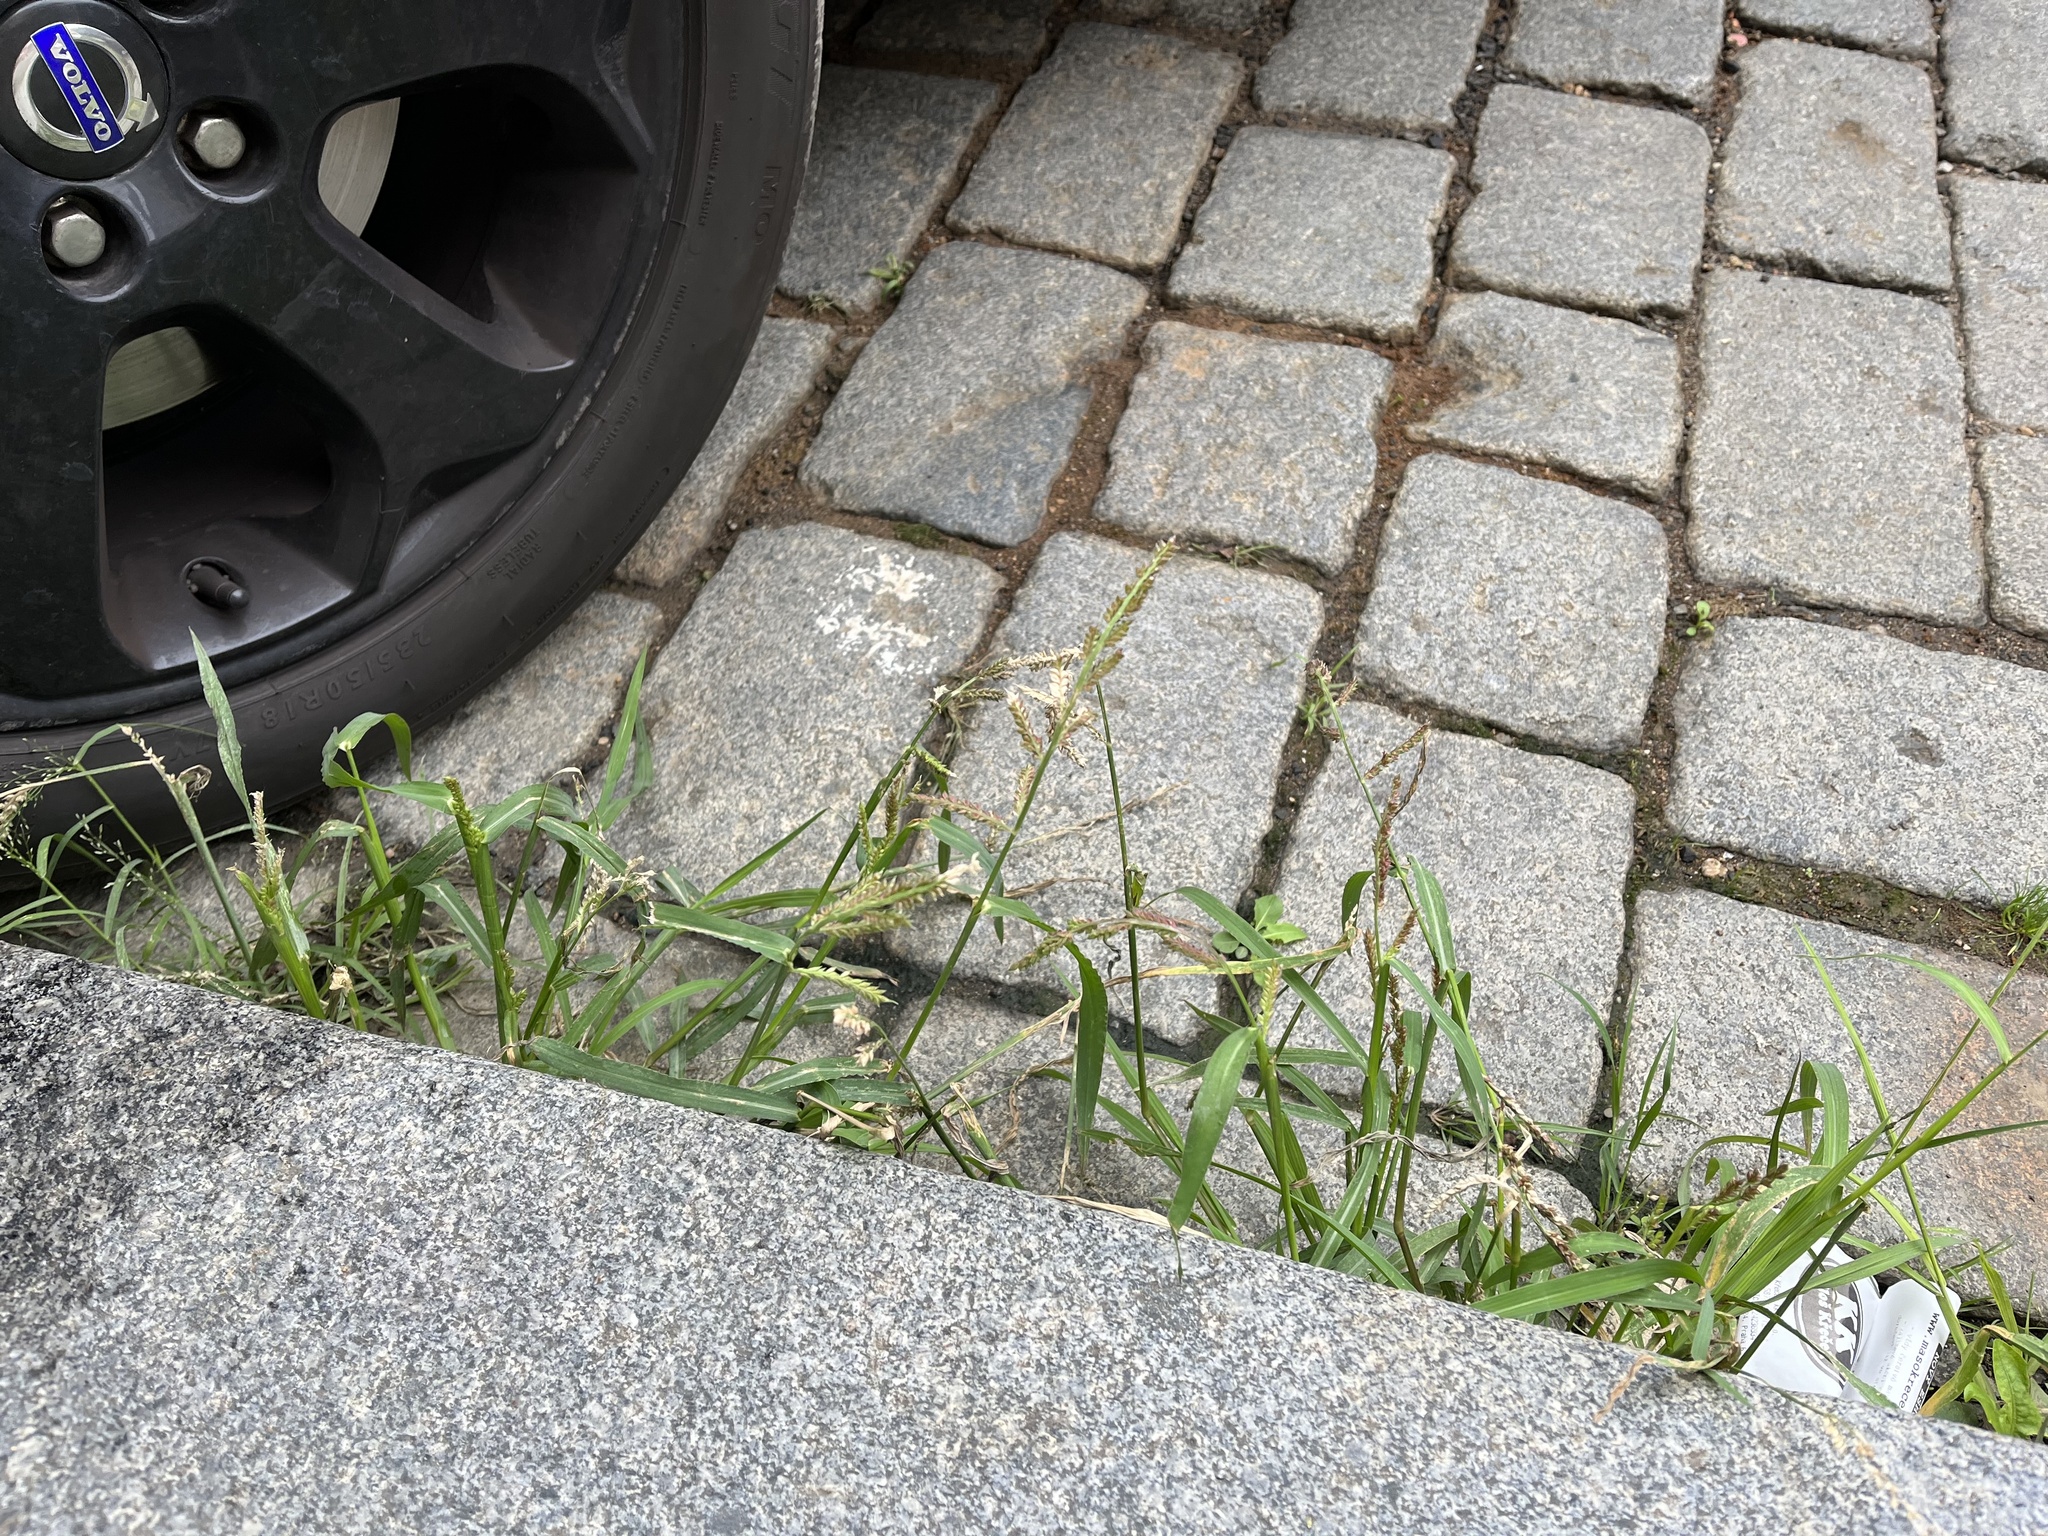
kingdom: Plantae
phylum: Tracheophyta
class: Liliopsida
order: Poales
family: Poaceae
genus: Echinochloa
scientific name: Echinochloa crus-galli
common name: Cockspur
